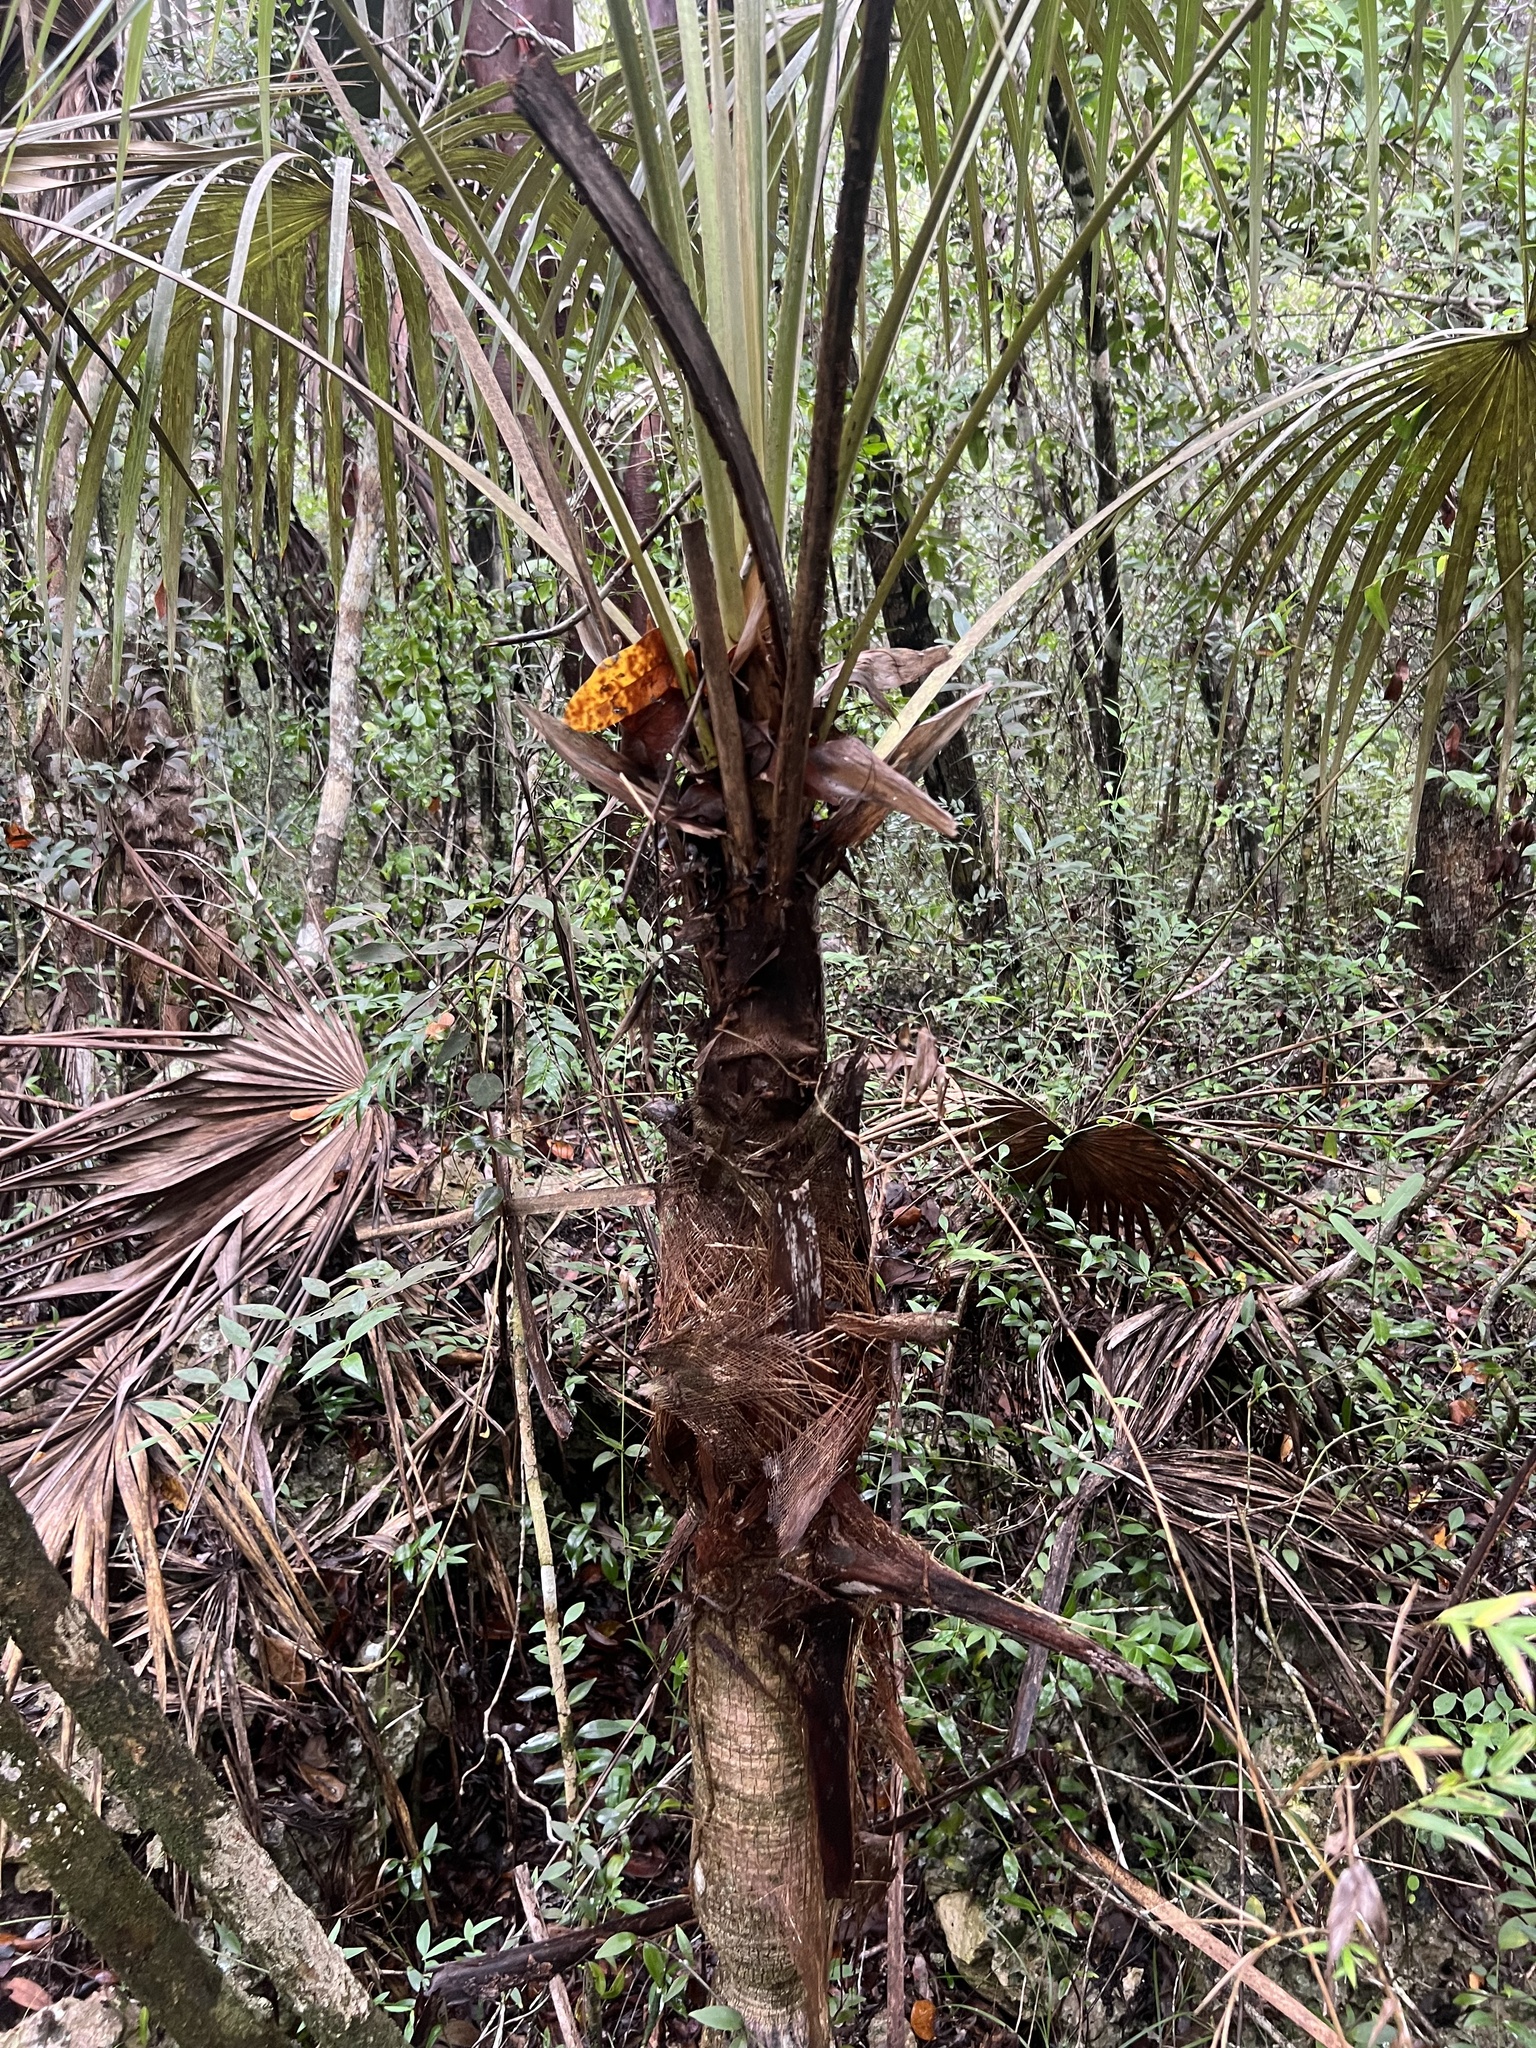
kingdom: Plantae
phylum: Tracheophyta
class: Liliopsida
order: Arecales
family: Arecaceae
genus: Coccothrinax
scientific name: Coccothrinax proctorii
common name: Silver palm
